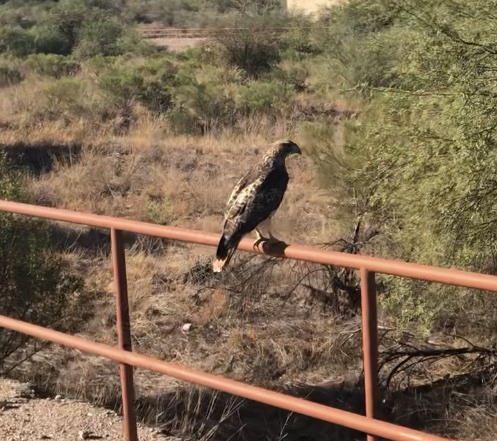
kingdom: Animalia
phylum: Chordata
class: Aves
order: Accipitriformes
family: Accipitridae
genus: Buteo
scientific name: Buteo jamaicensis
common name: Red-tailed hawk
